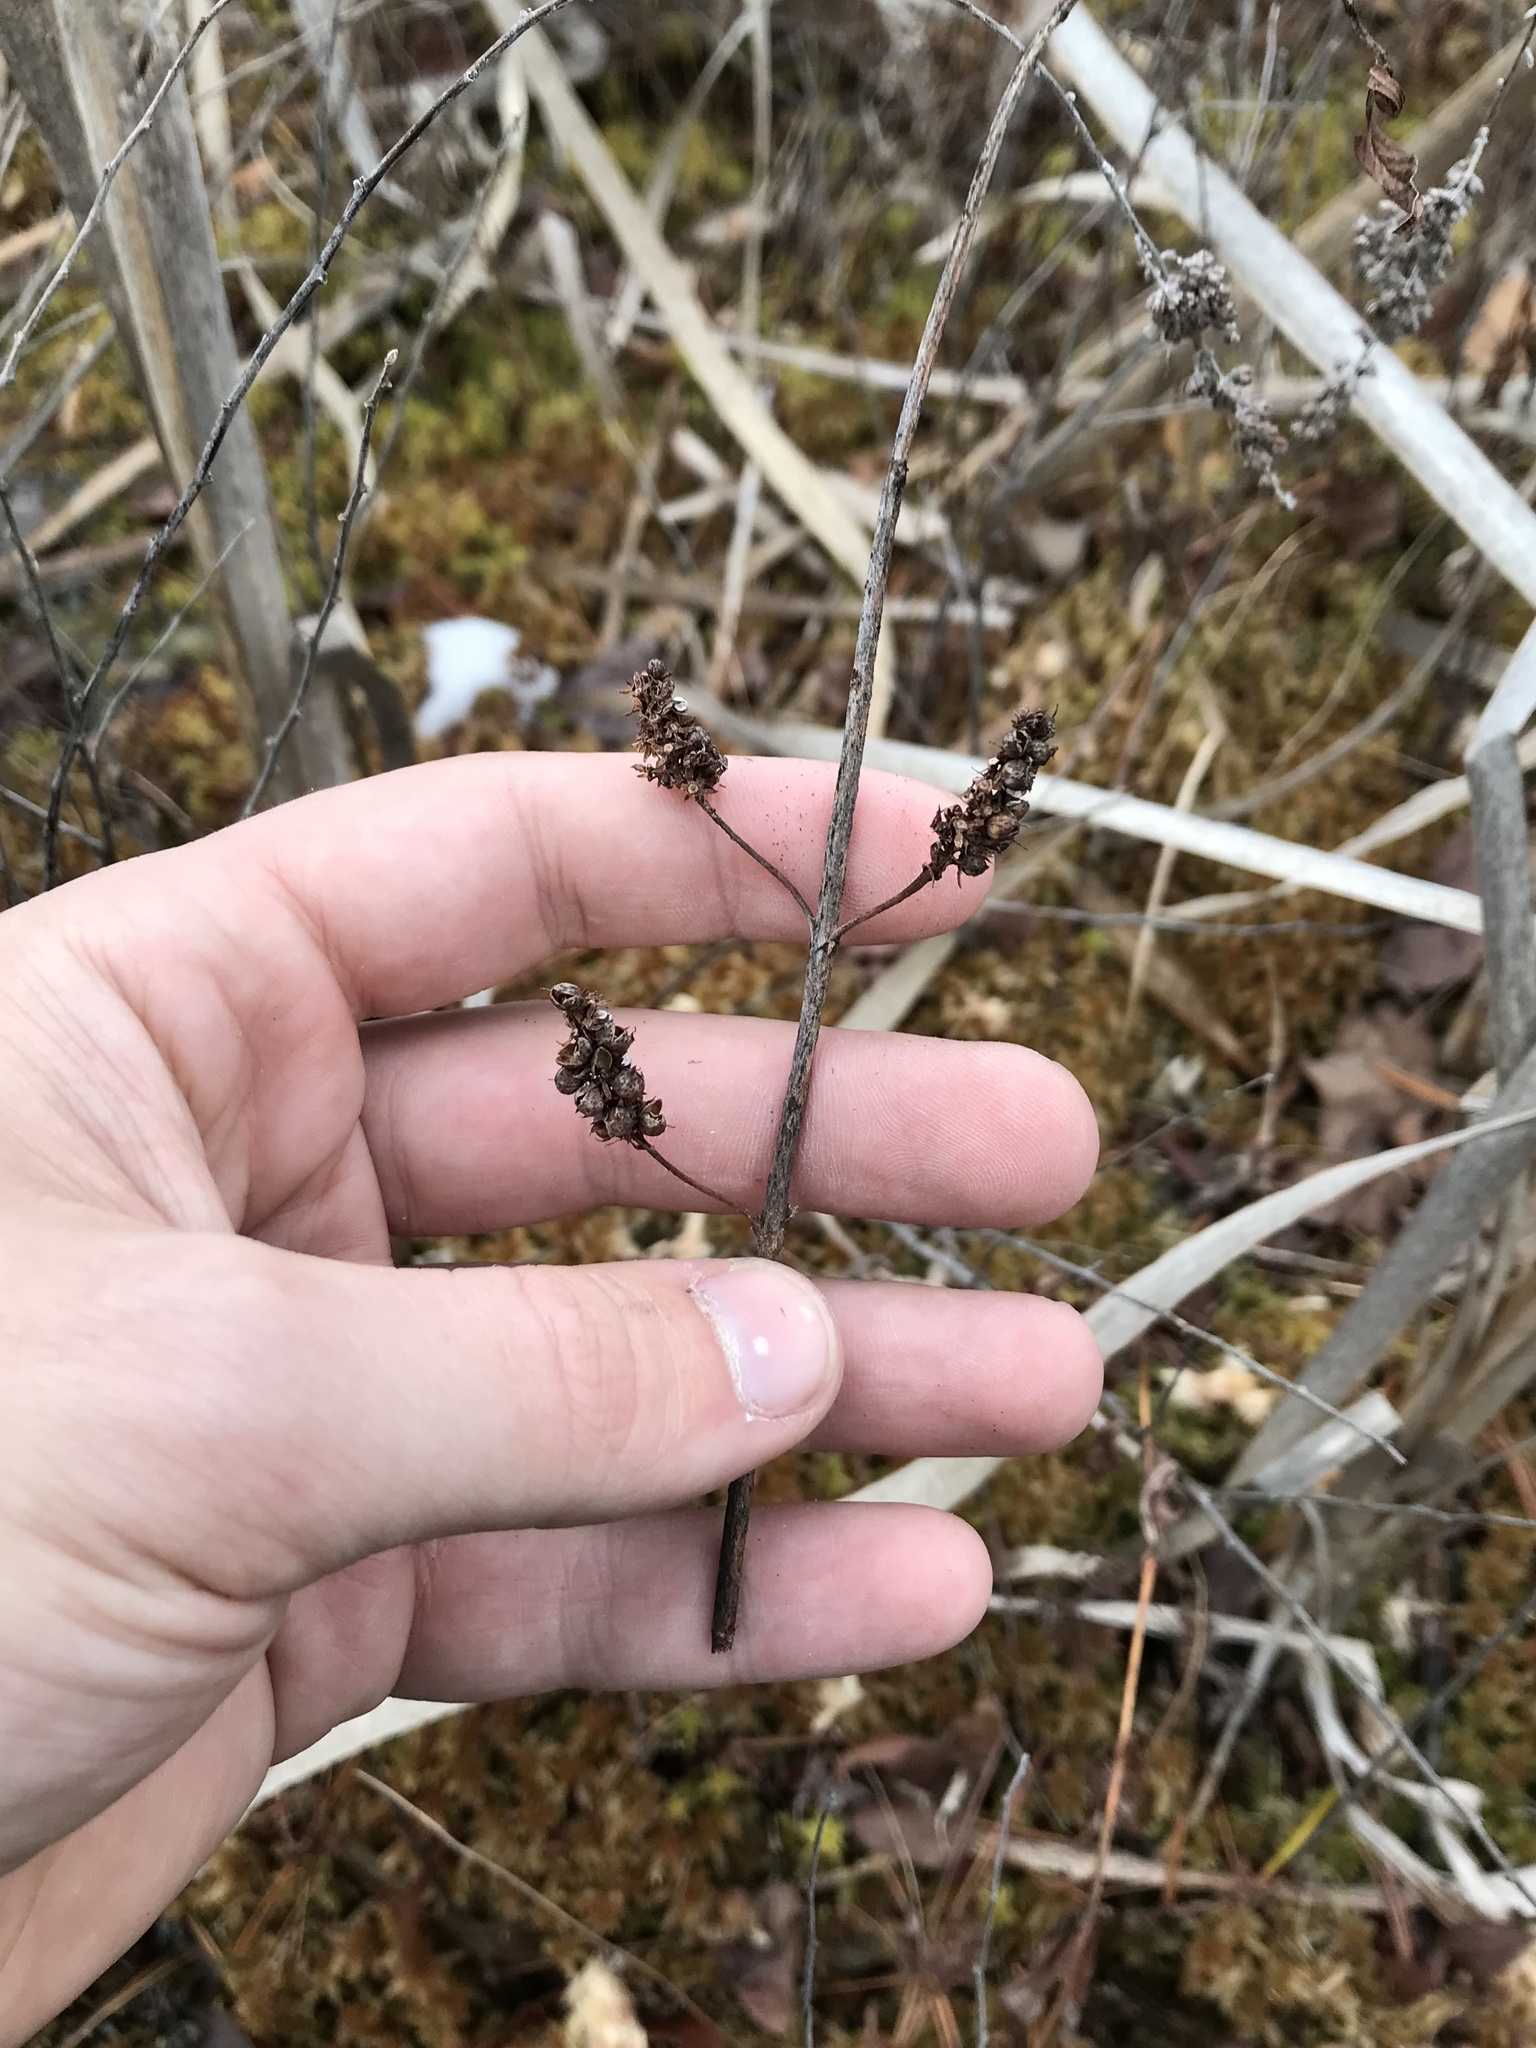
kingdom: Plantae
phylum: Tracheophyta
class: Magnoliopsida
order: Ericales
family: Primulaceae
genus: Lysimachia
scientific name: Lysimachia thyrsiflora
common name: Tufted loosestrife
